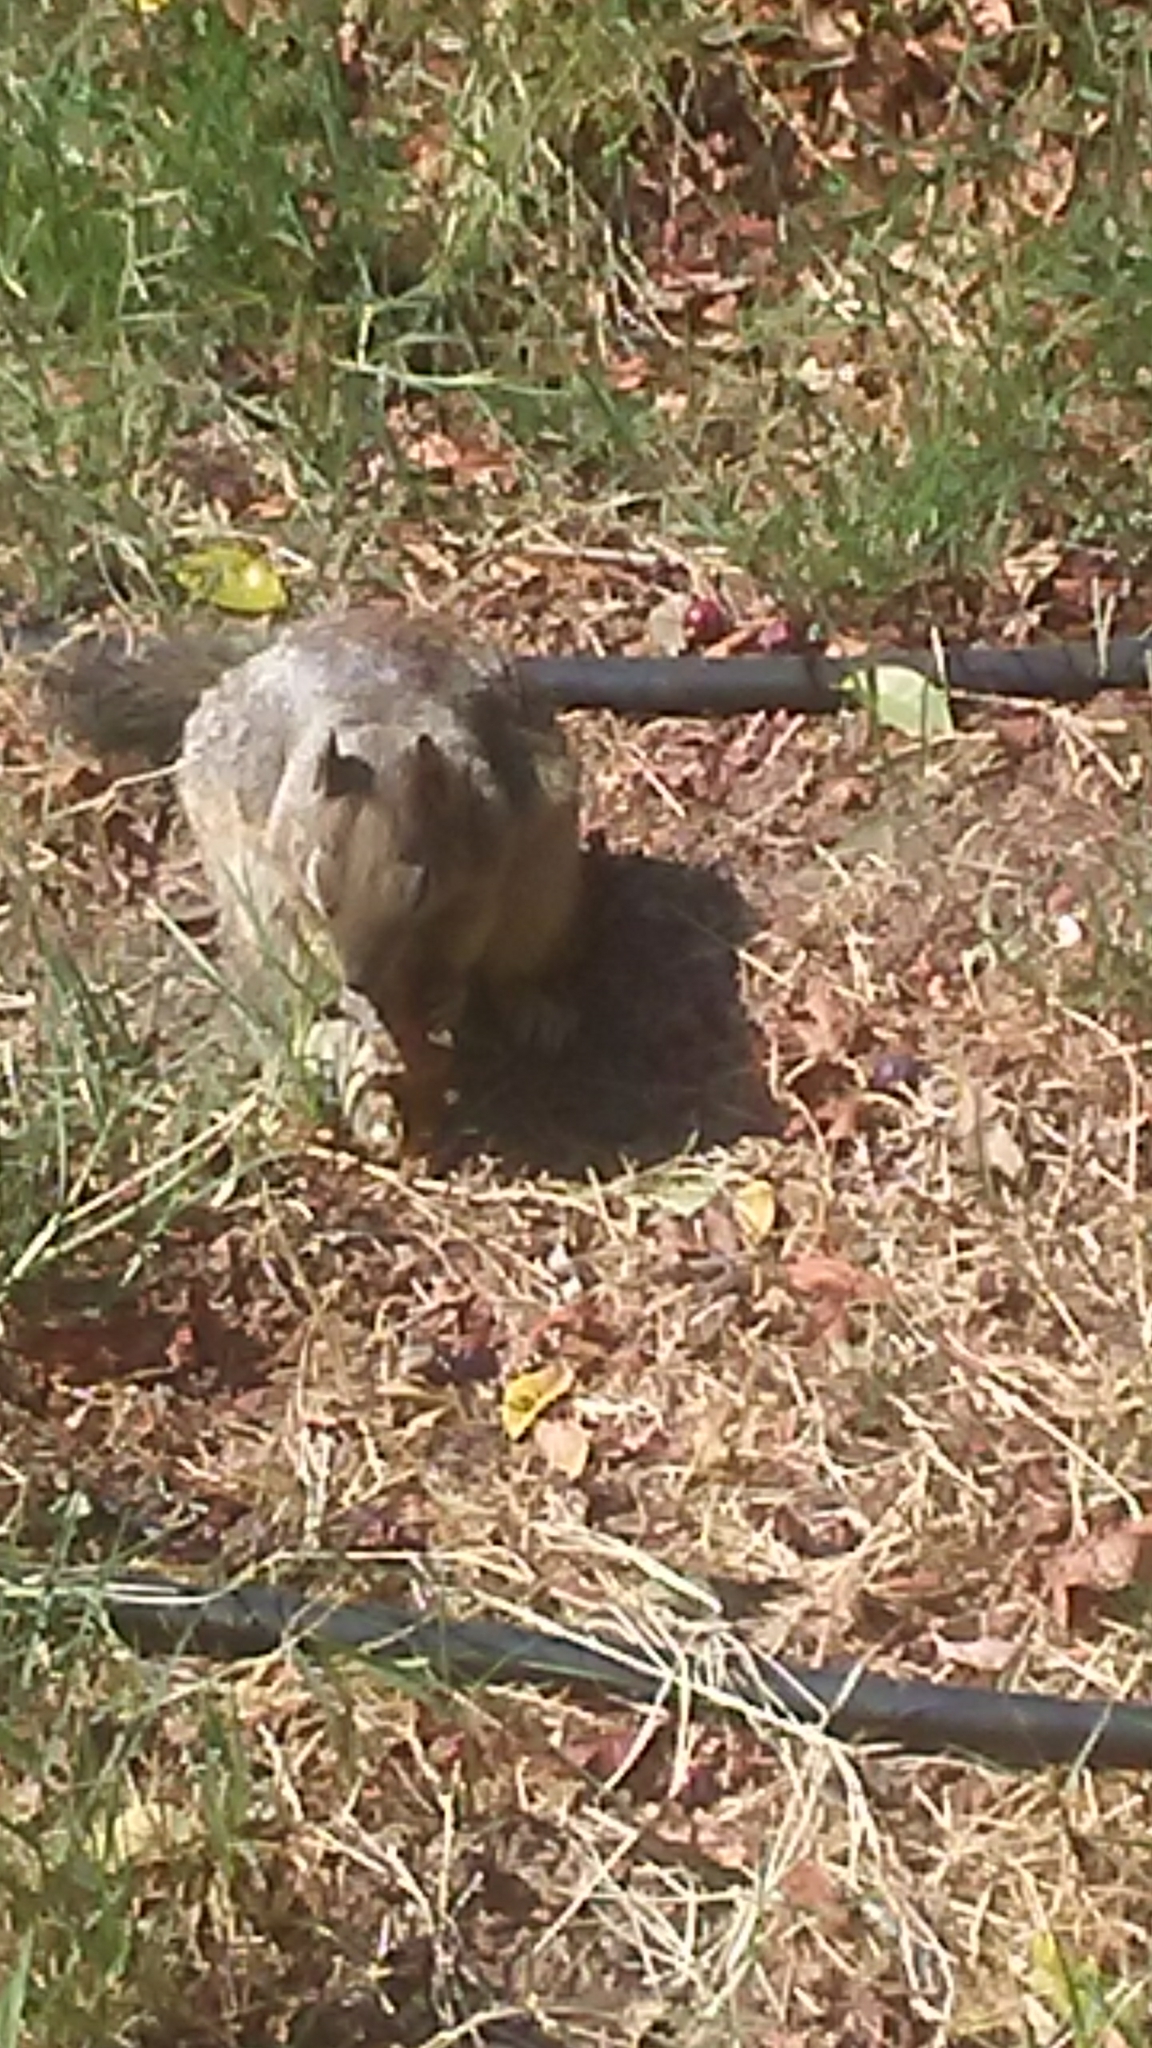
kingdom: Animalia
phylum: Chordata
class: Mammalia
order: Rodentia
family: Sciuridae
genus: Otospermophilus
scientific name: Otospermophilus beecheyi
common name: California ground squirrel
